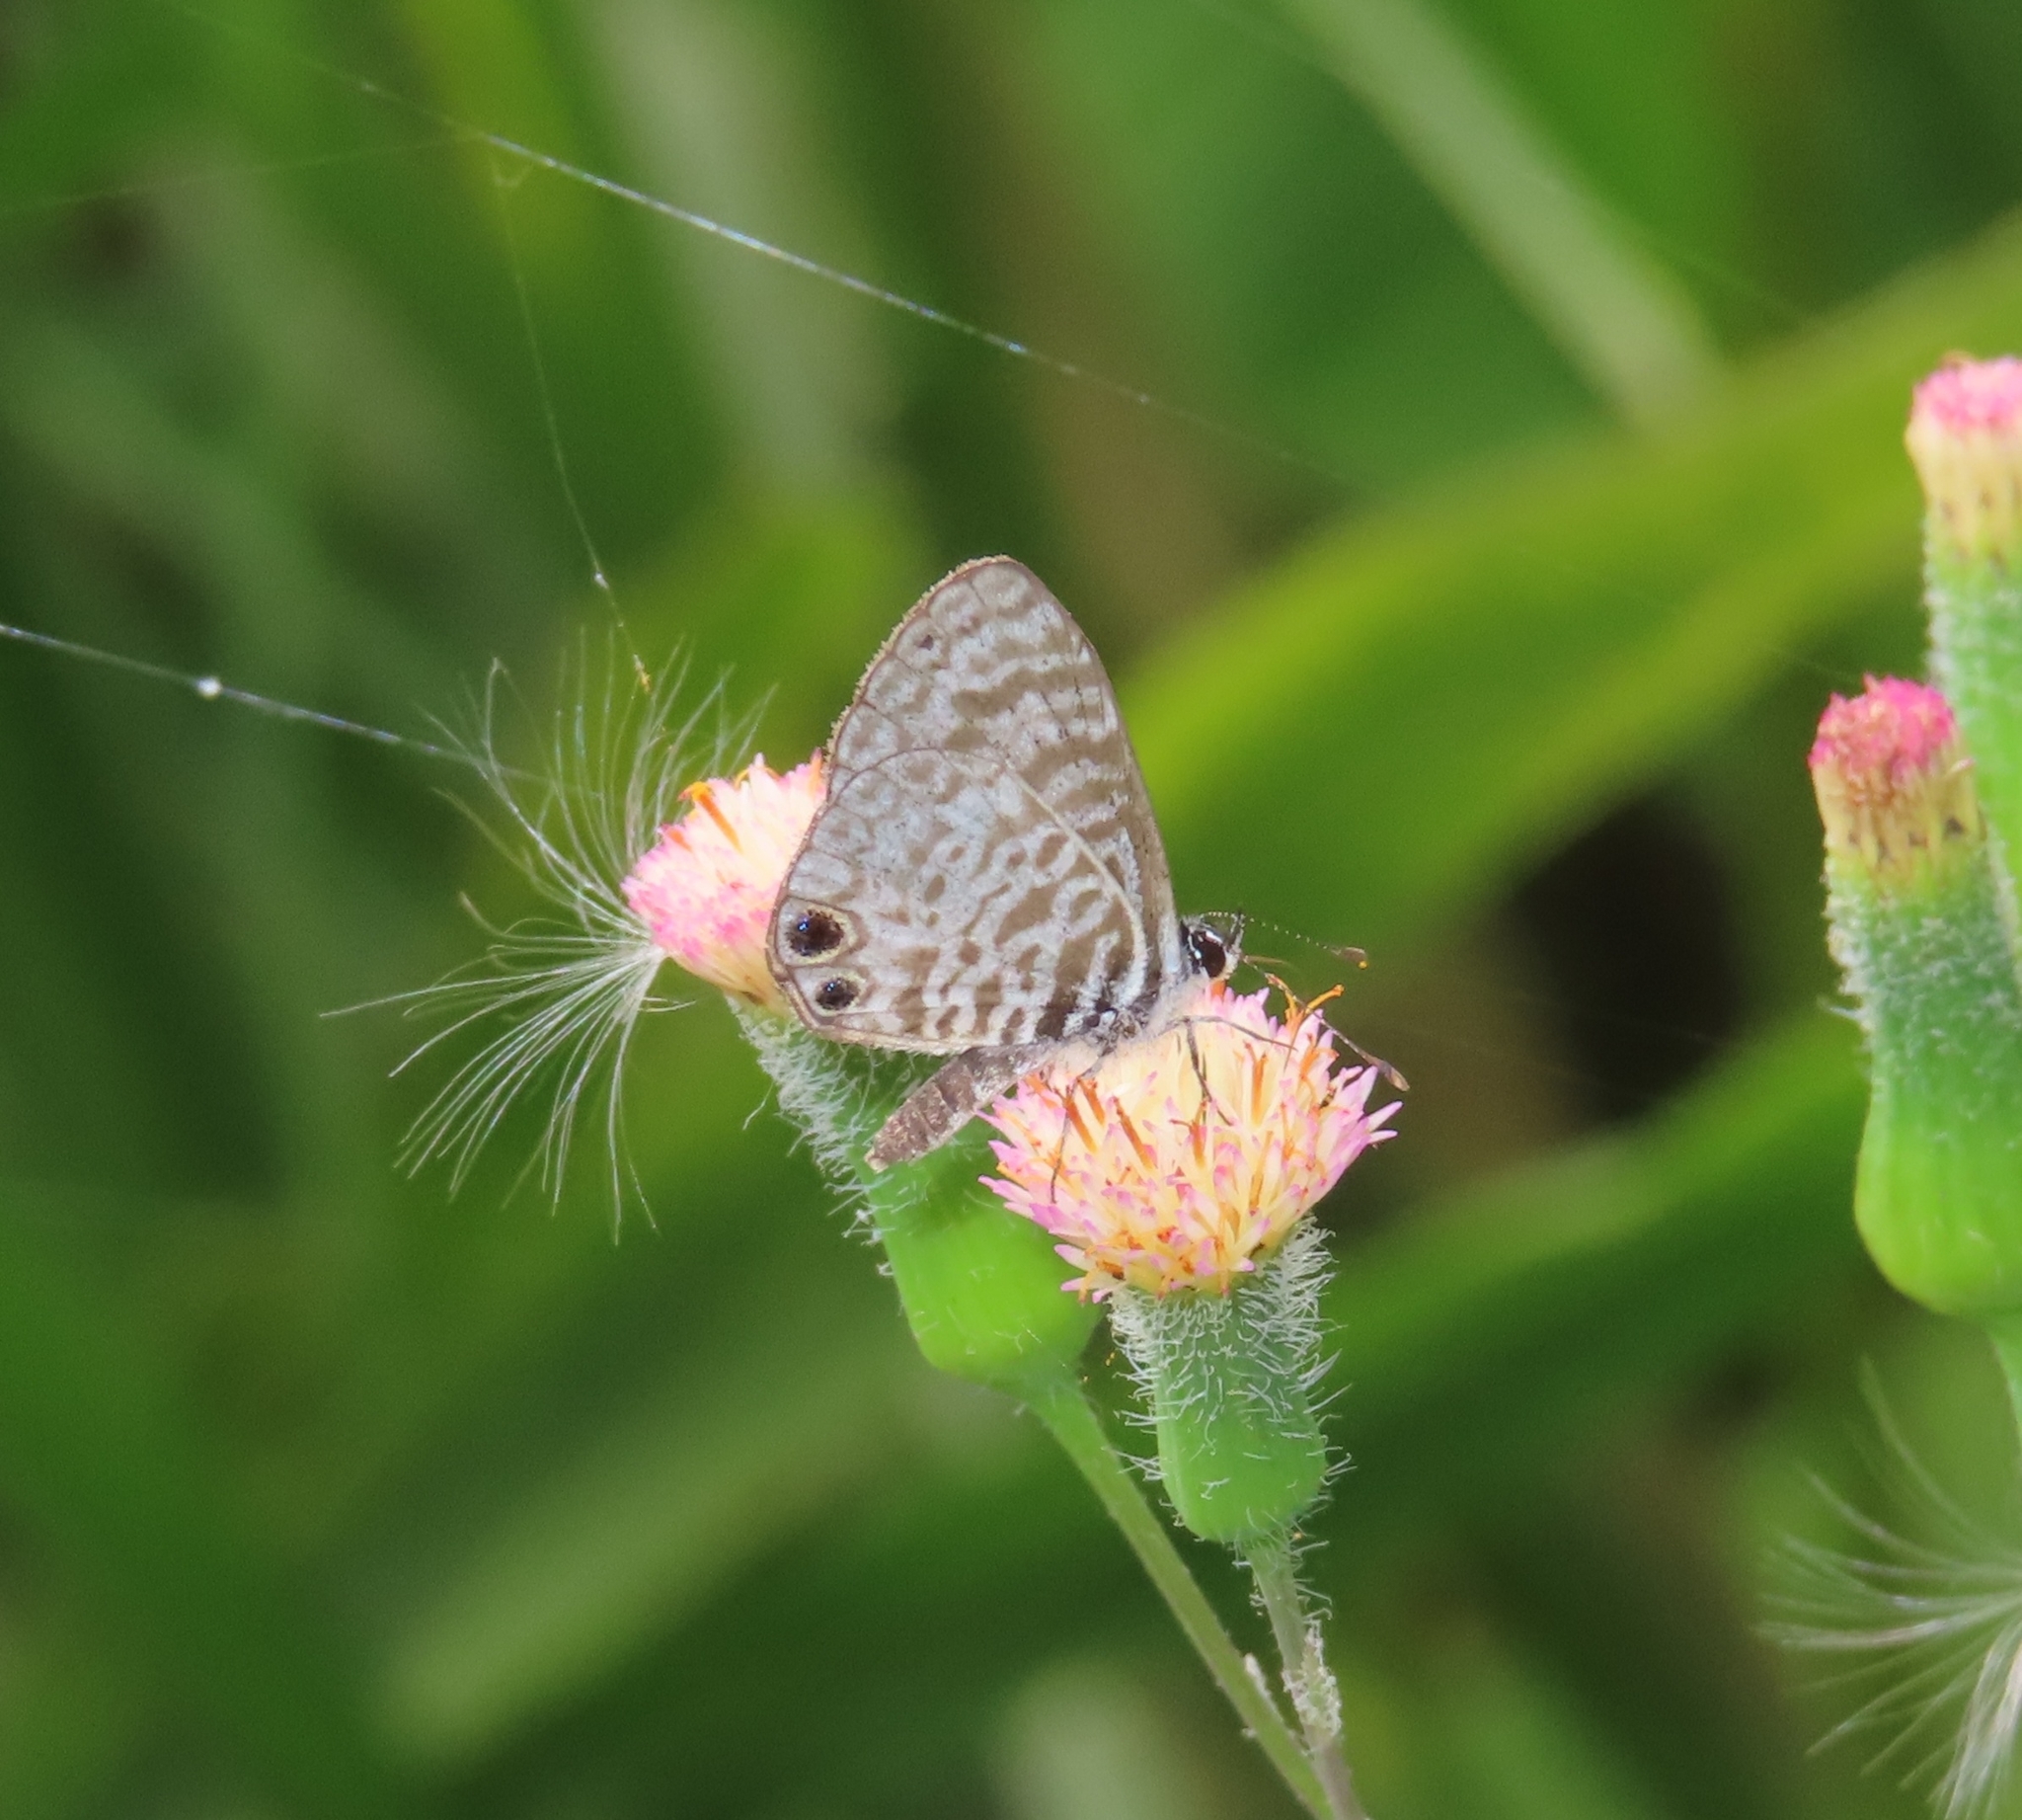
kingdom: Animalia
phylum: Arthropoda
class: Insecta
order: Lepidoptera
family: Lycaenidae
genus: Leptotes
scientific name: Leptotes cassius
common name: Cassius blue
